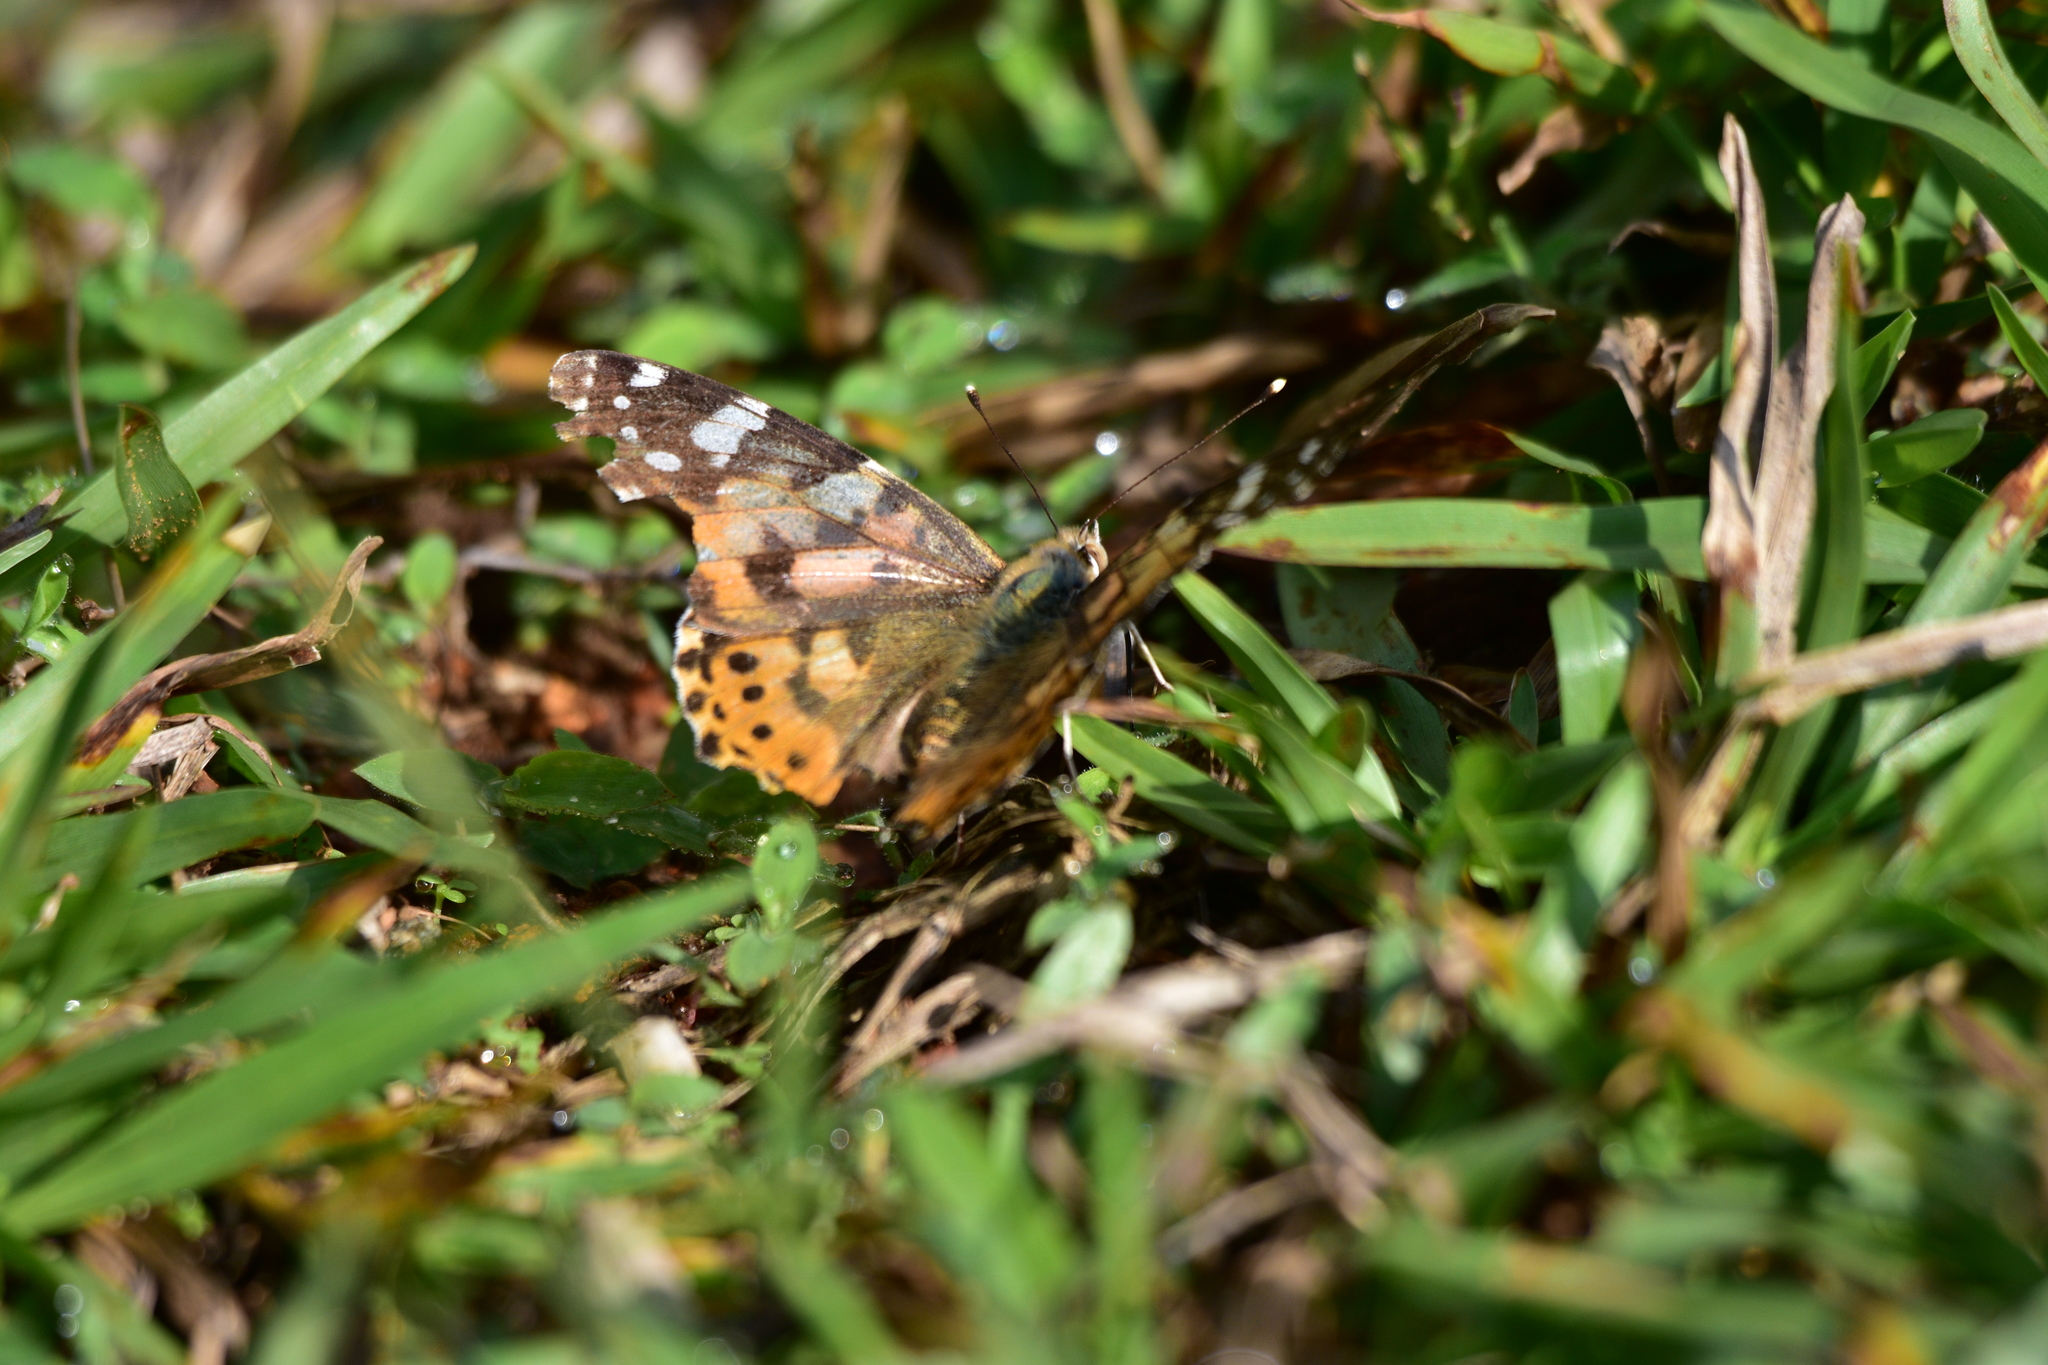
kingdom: Animalia
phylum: Arthropoda
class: Insecta
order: Lepidoptera
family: Nymphalidae
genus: Vanessa
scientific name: Vanessa cardui
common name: Painted lady
